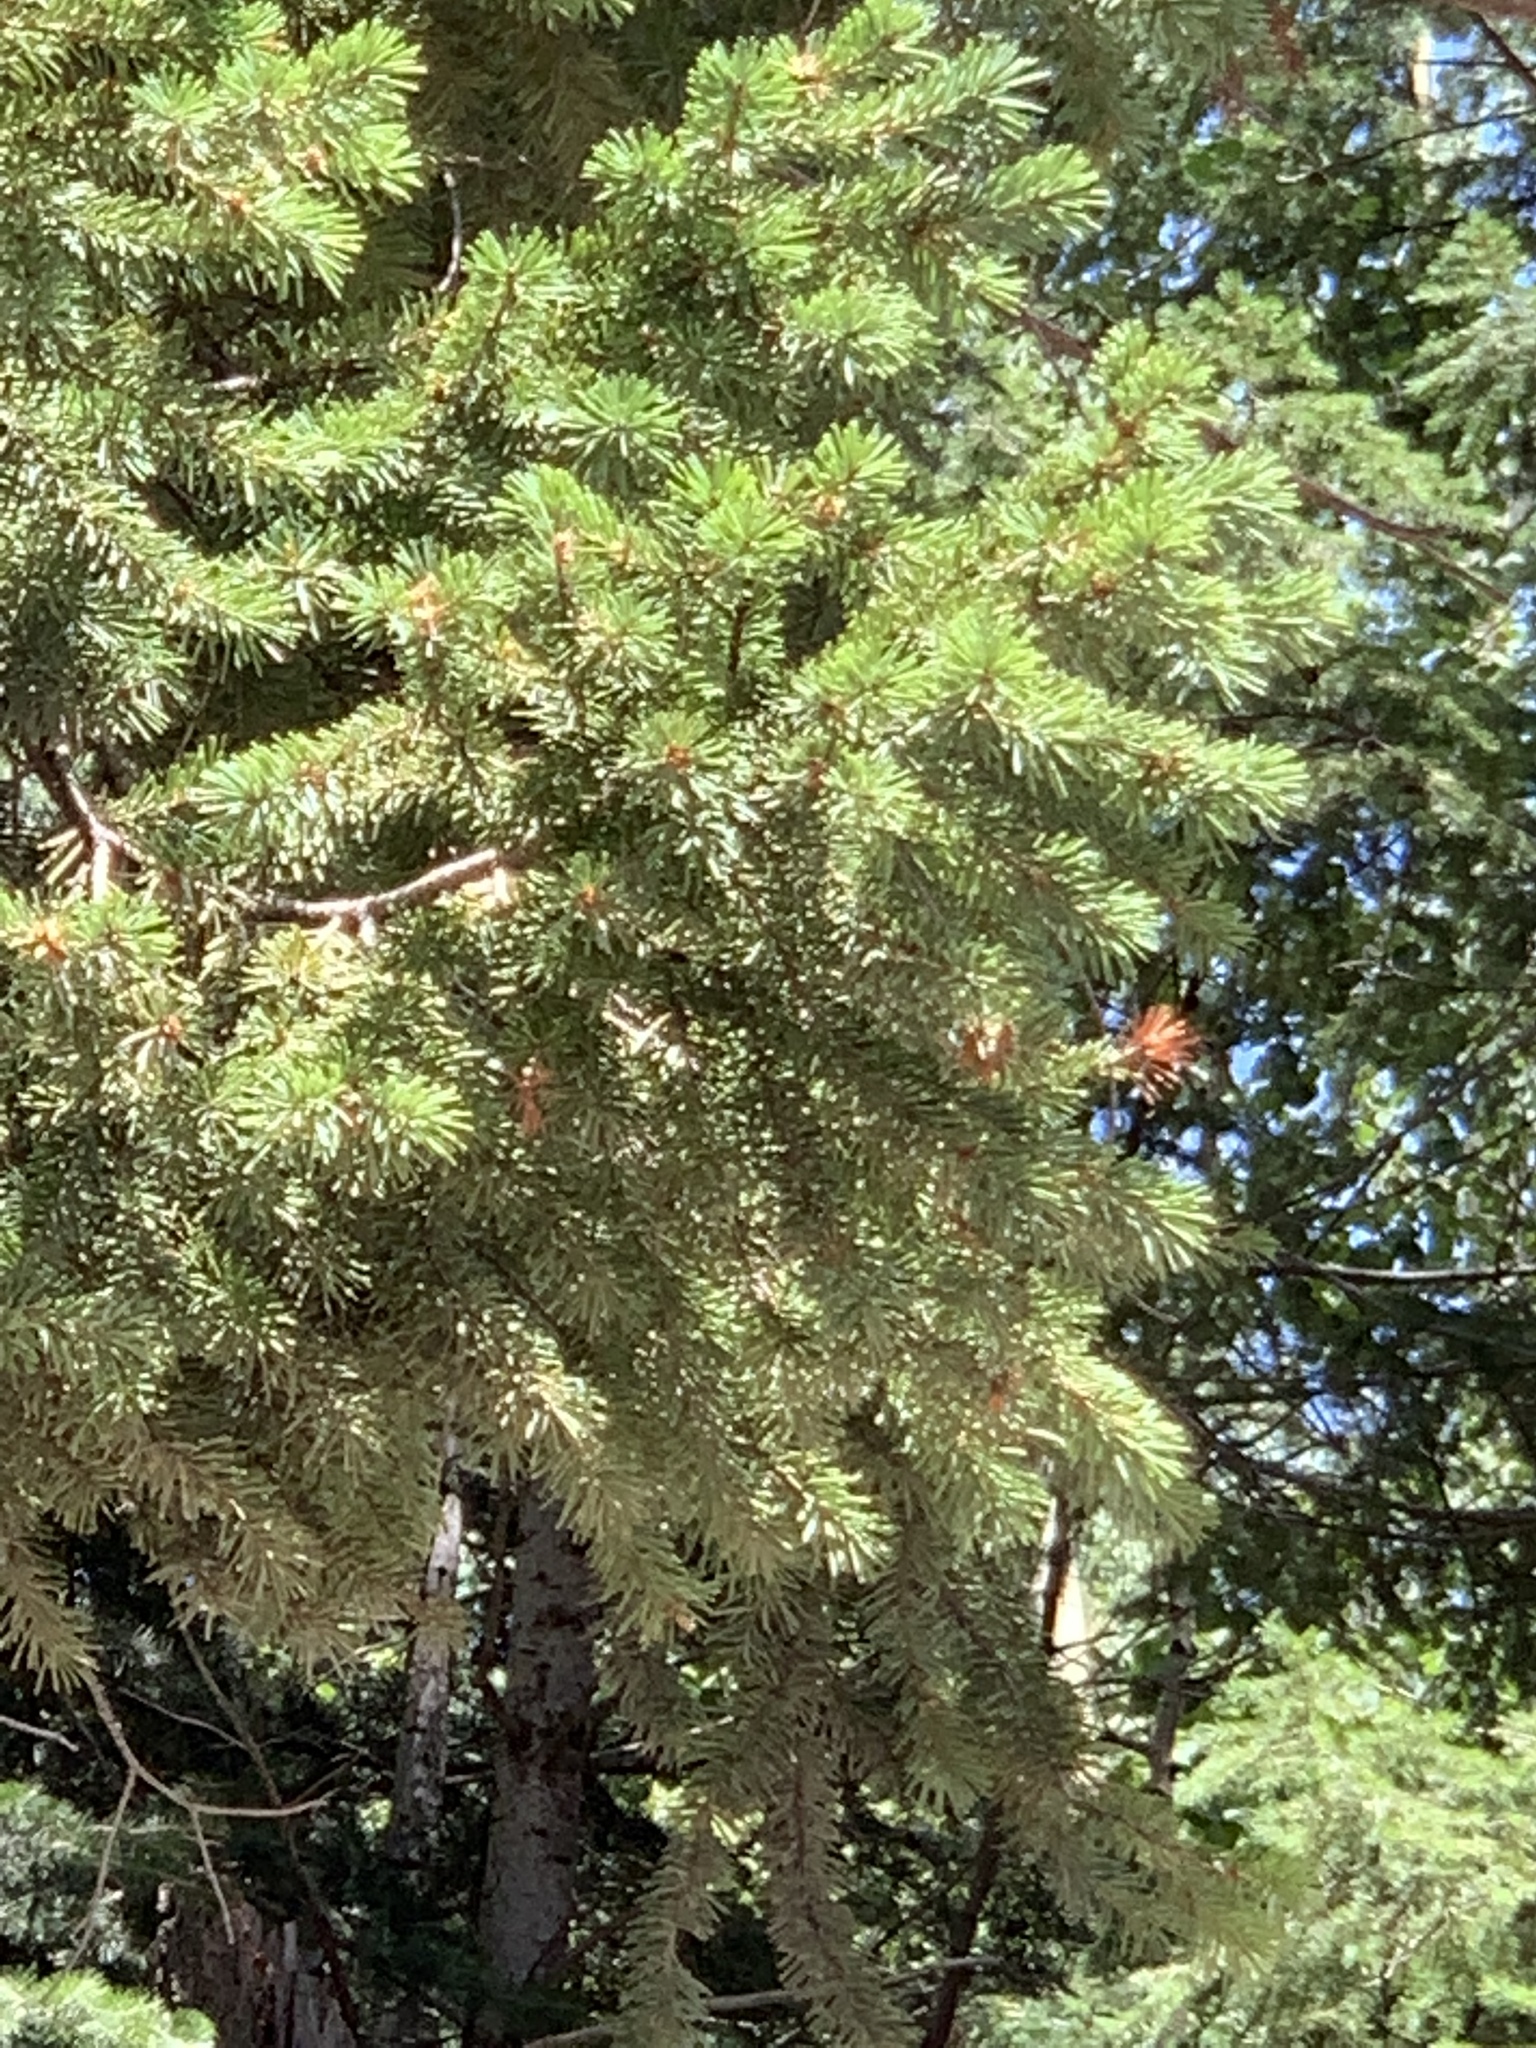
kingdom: Plantae
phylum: Tracheophyta
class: Pinopsida
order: Pinales
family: Pinaceae
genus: Pseudotsuga
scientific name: Pseudotsuga menziesii
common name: Douglas fir
